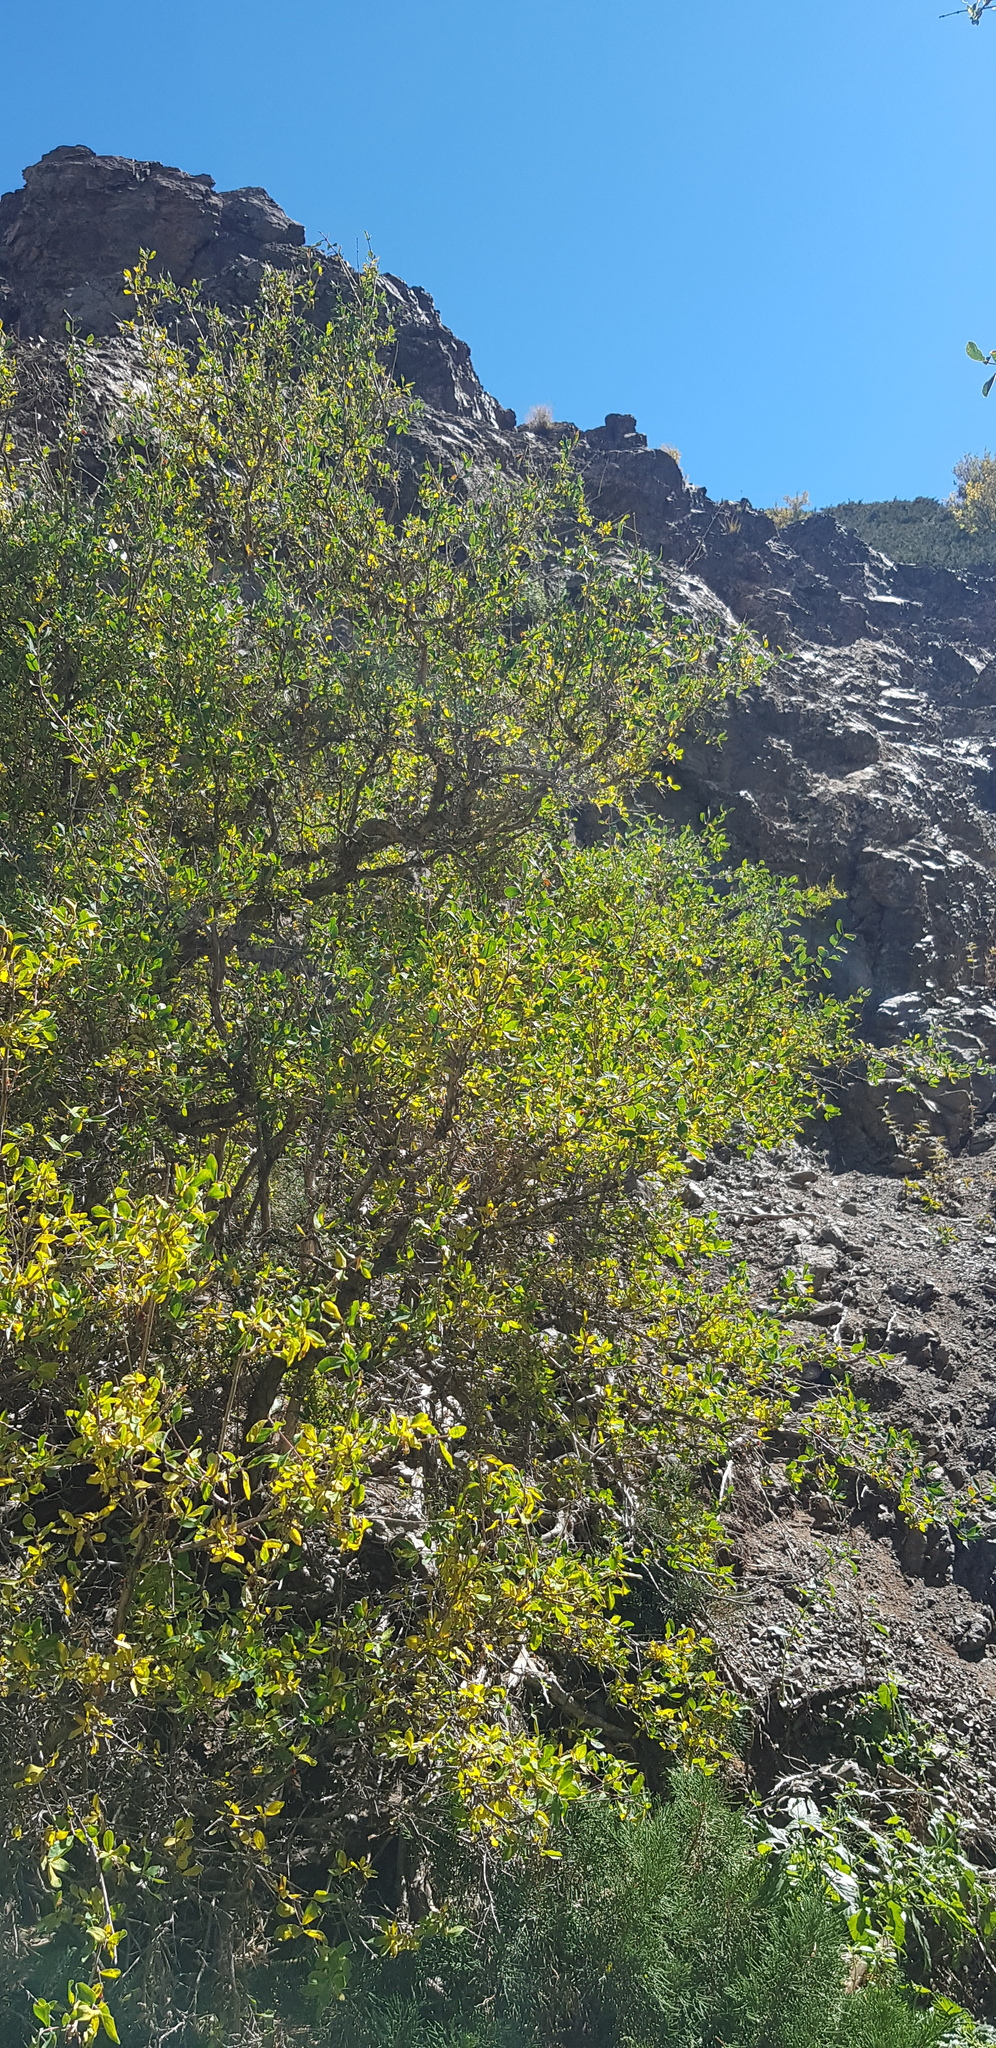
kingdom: Plantae
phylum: Tracheophyta
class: Magnoliopsida
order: Dipsacales
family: Caprifoliaceae
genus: Lonicera
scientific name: Lonicera microphylla
